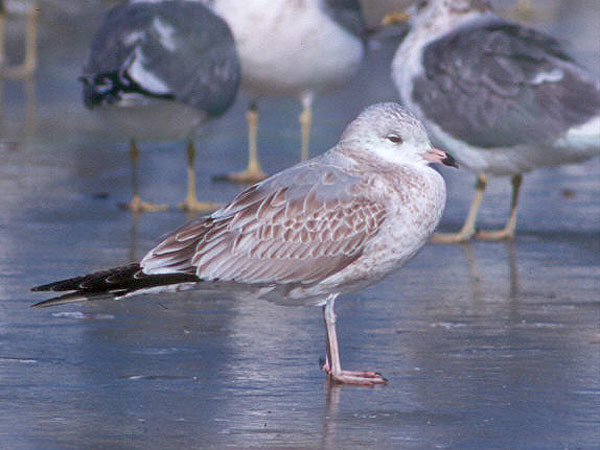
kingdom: Animalia
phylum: Chordata
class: Aves
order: Charadriiformes
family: Laridae
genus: Larus
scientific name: Larus canus
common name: Mew gull
